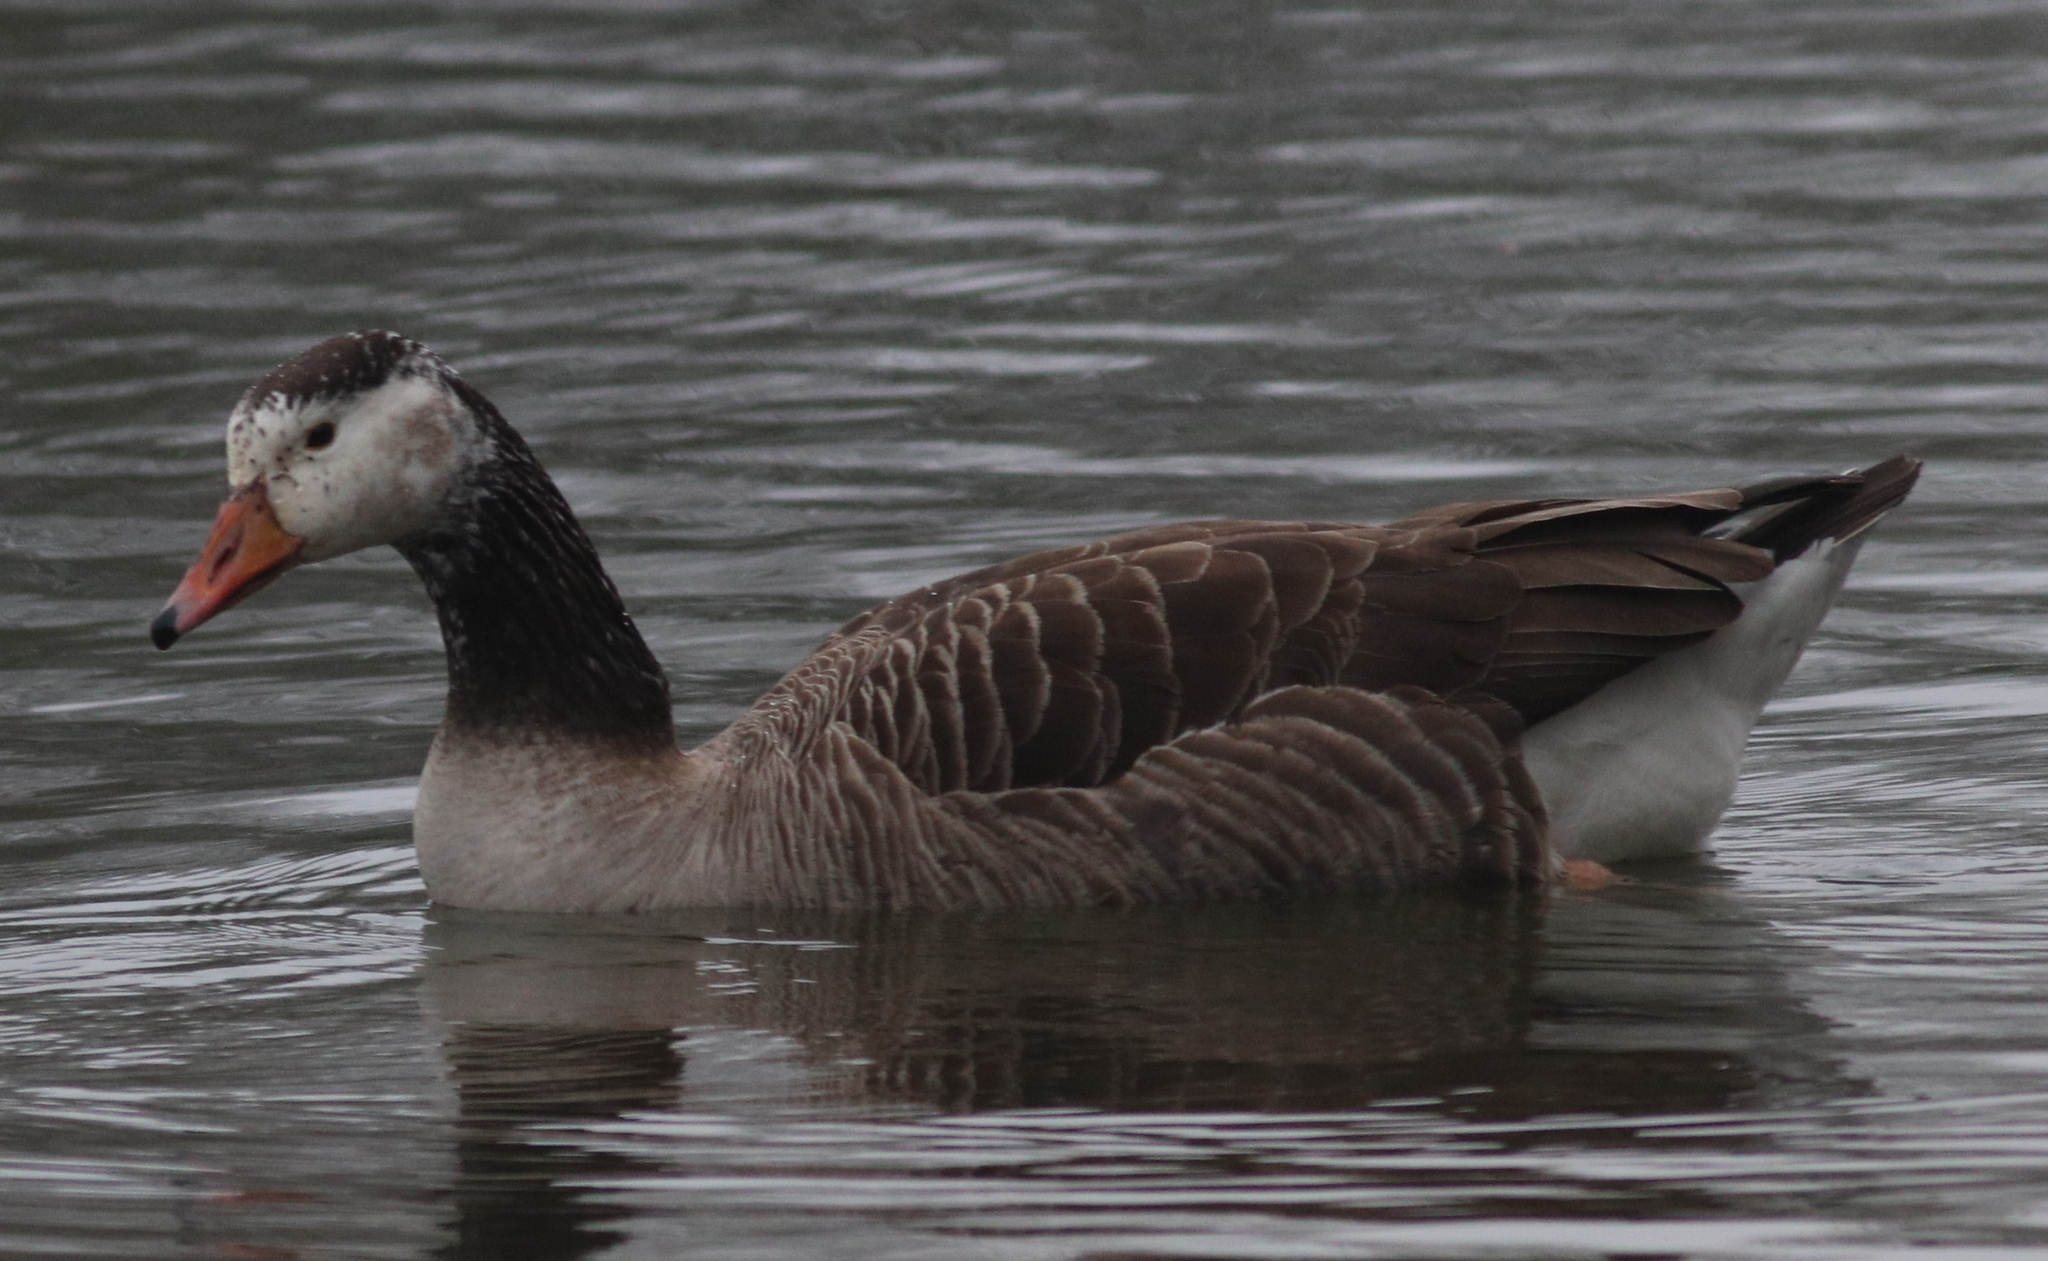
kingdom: Animalia
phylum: Chordata
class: Aves
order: Anseriformes
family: Anatidae
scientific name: Anatidae
